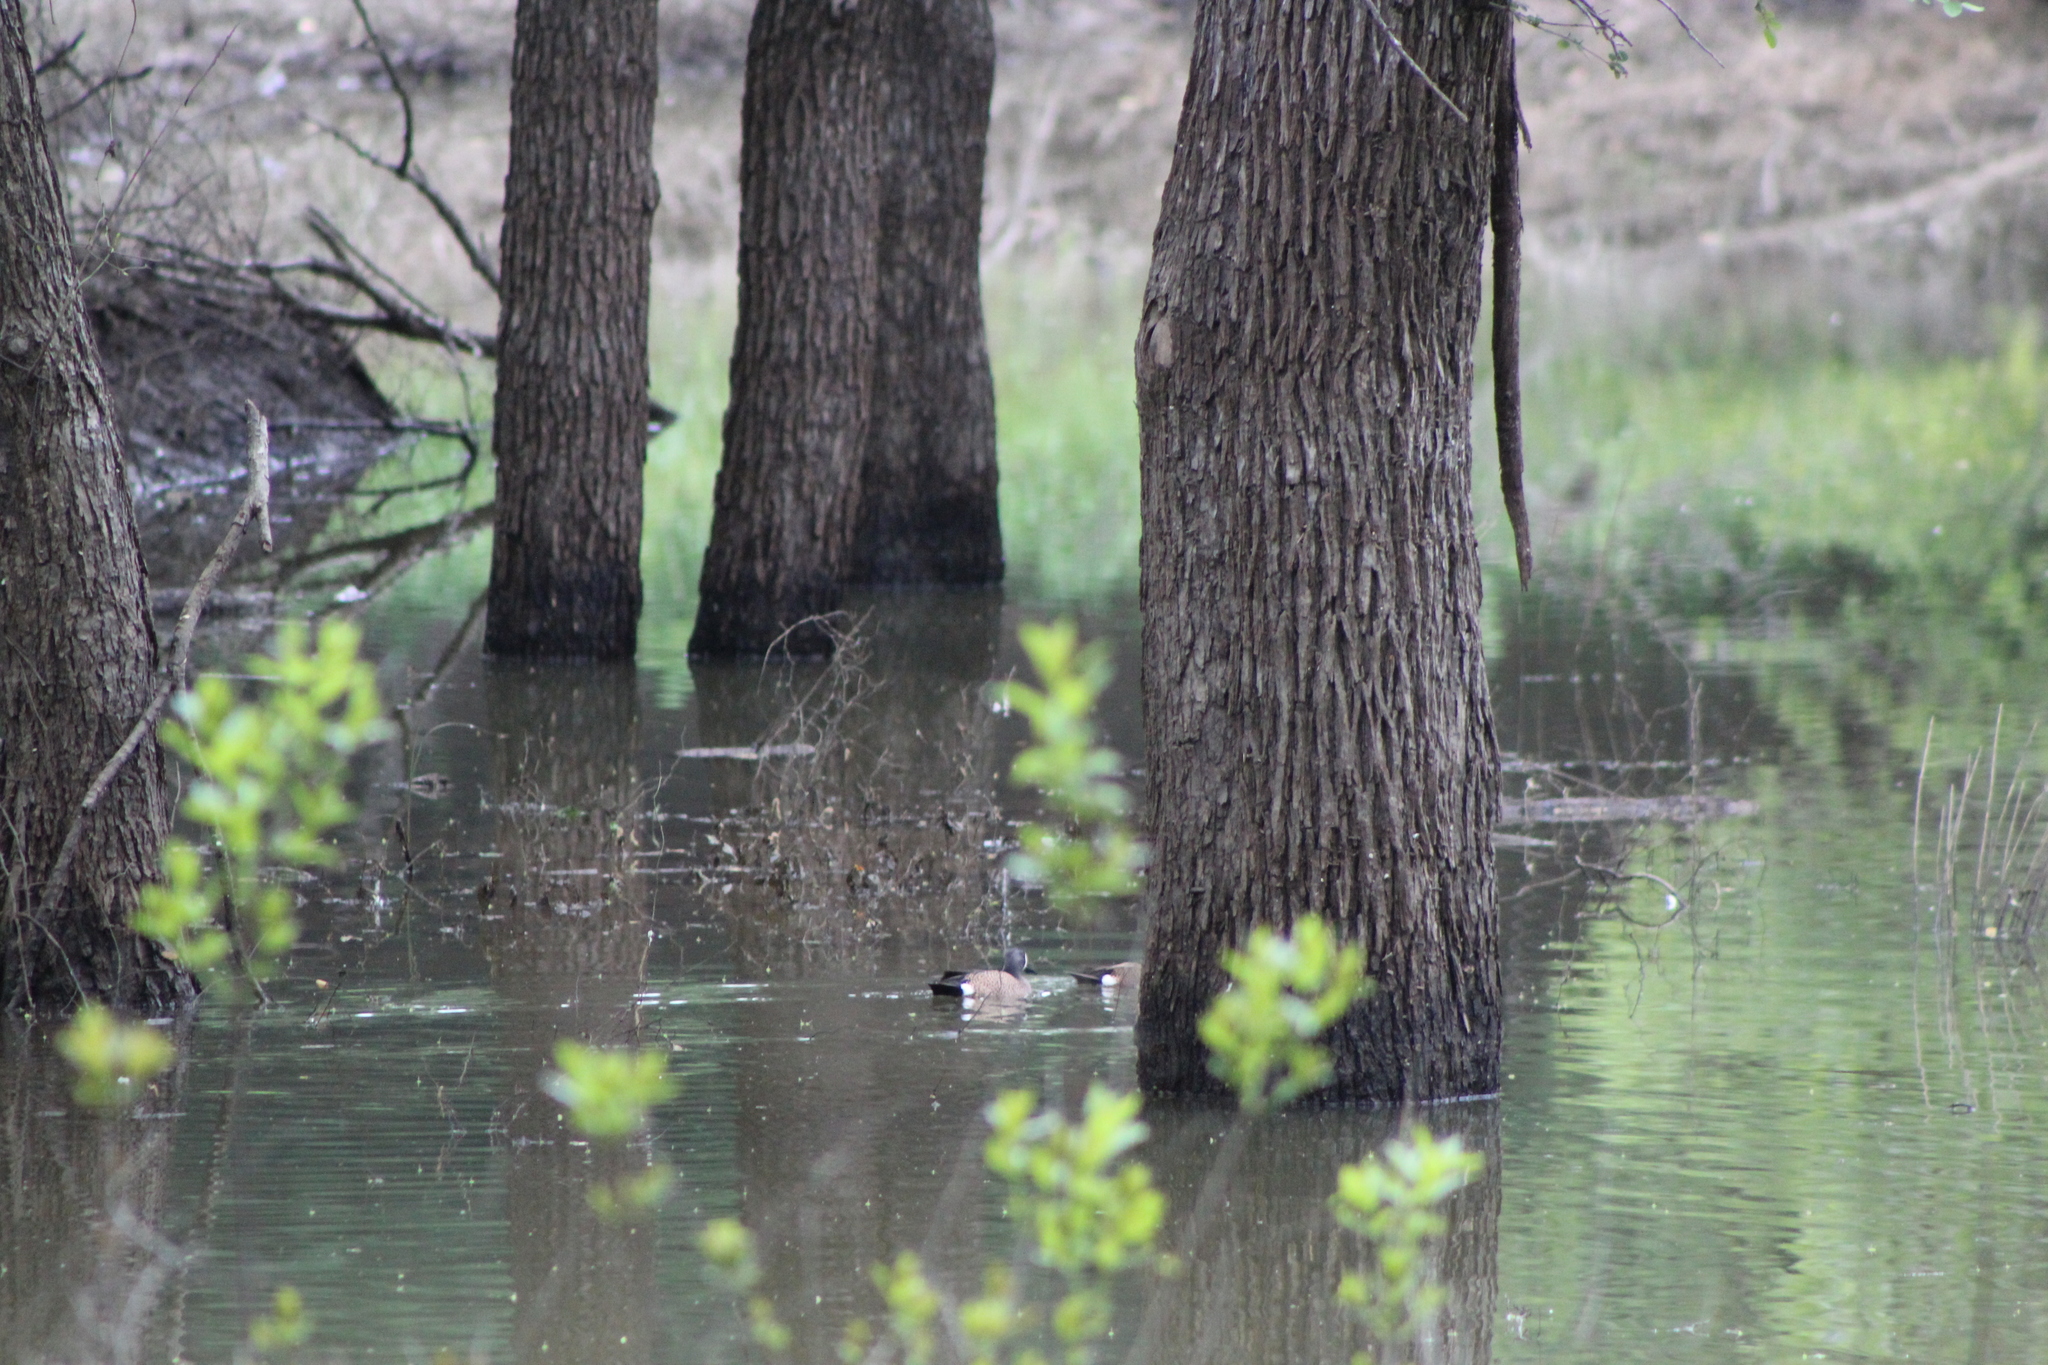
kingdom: Animalia
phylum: Chordata
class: Aves
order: Anseriformes
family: Anatidae
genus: Spatula
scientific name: Spatula discors
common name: Blue-winged teal
